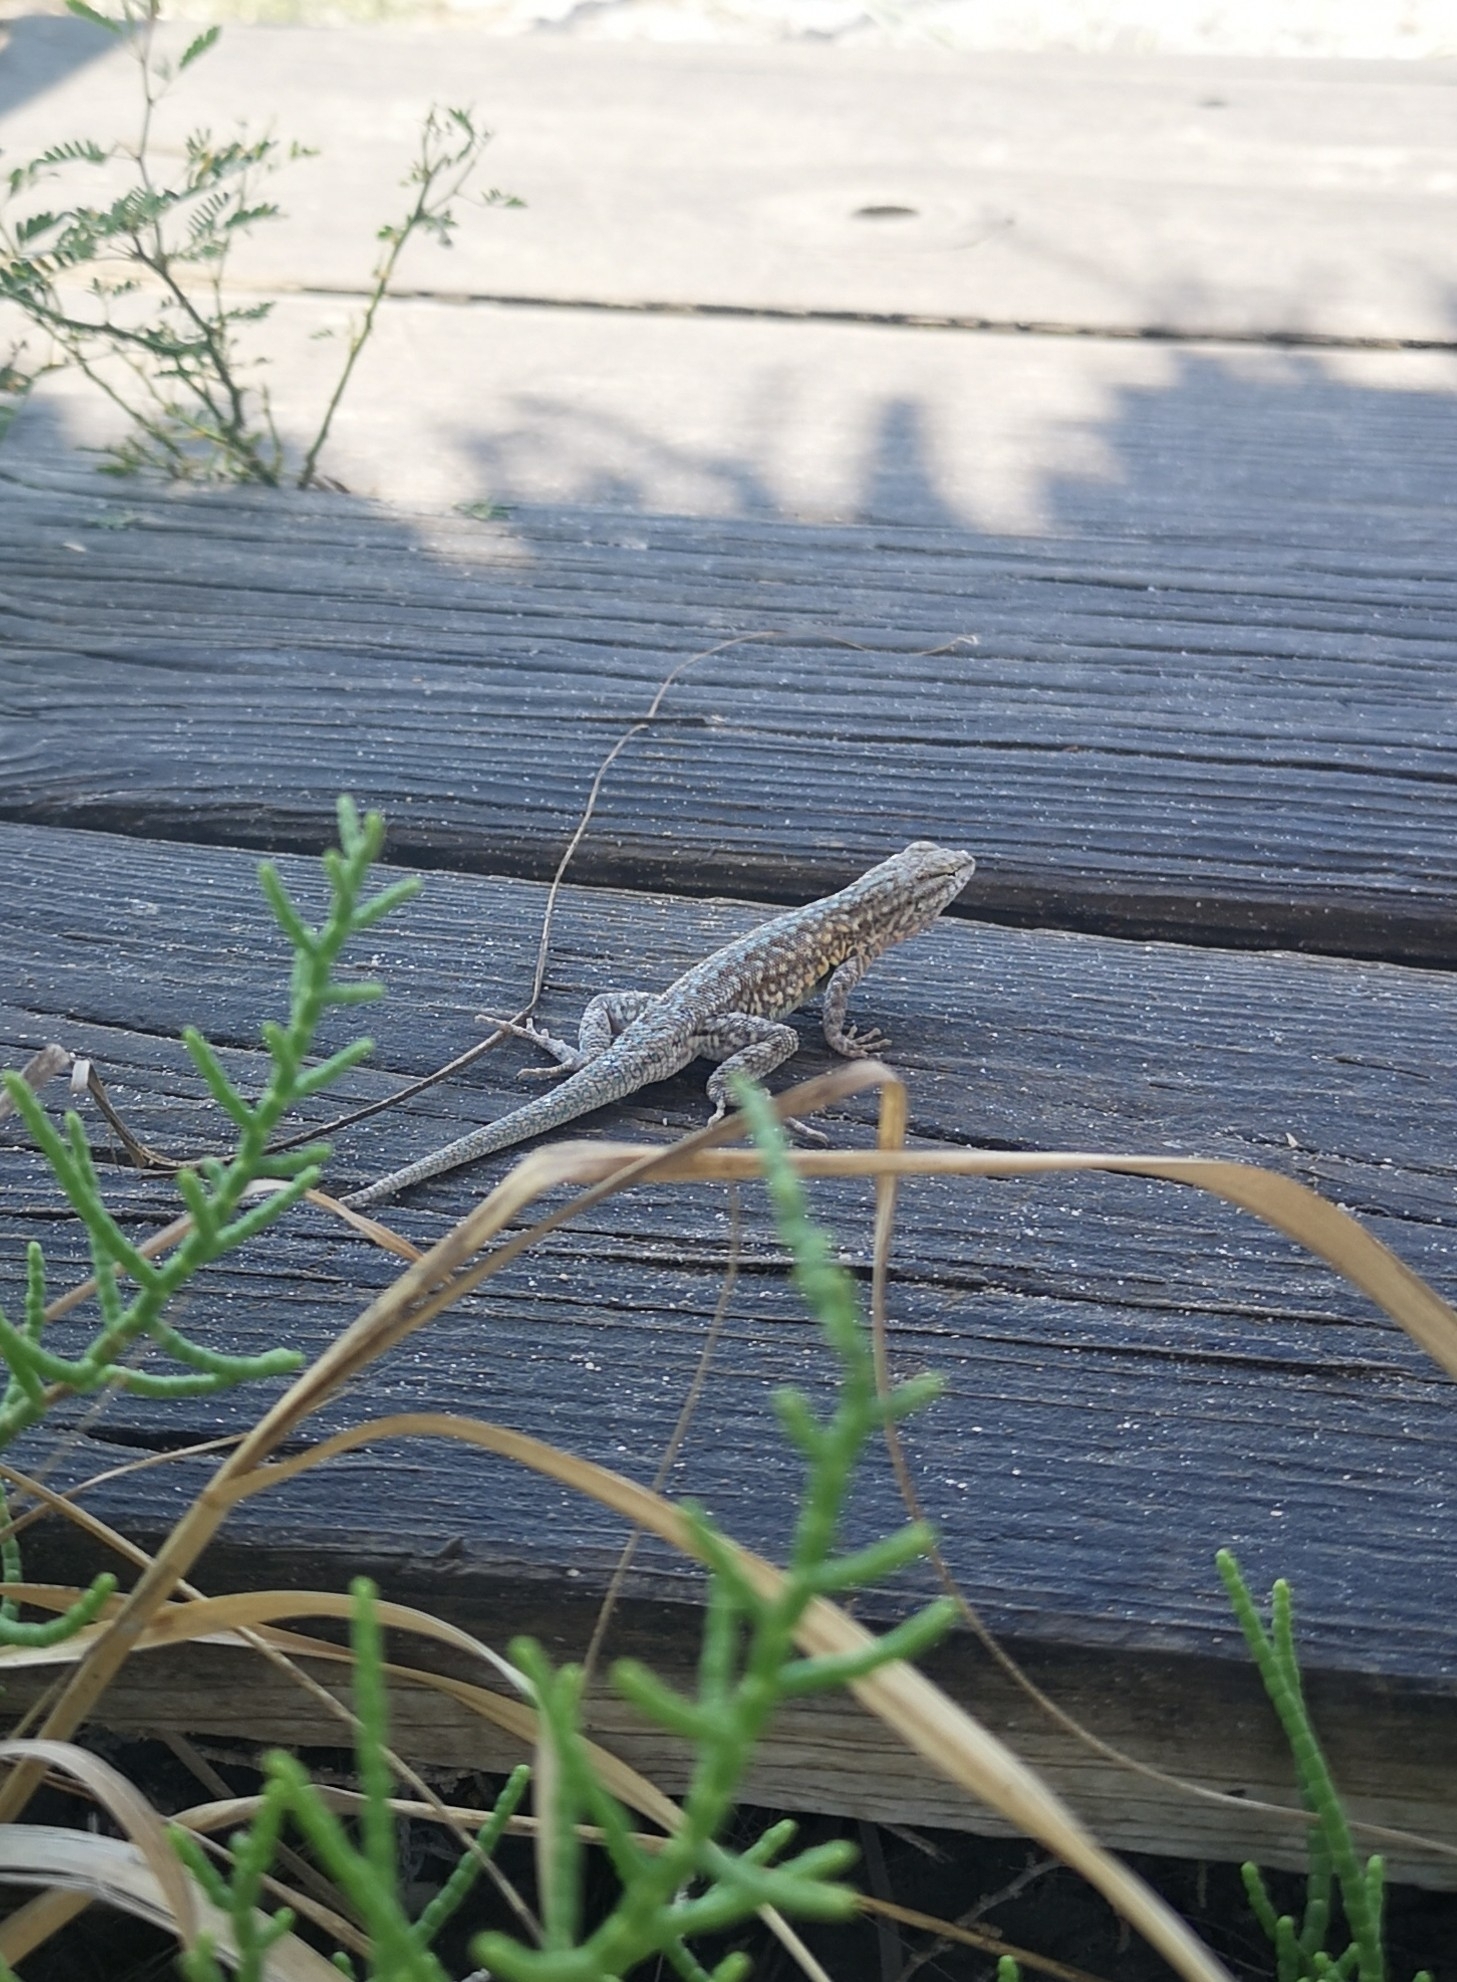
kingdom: Animalia
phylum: Chordata
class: Squamata
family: Phrynosomatidae
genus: Uta
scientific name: Uta stansburiana
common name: Side-blotched lizard
